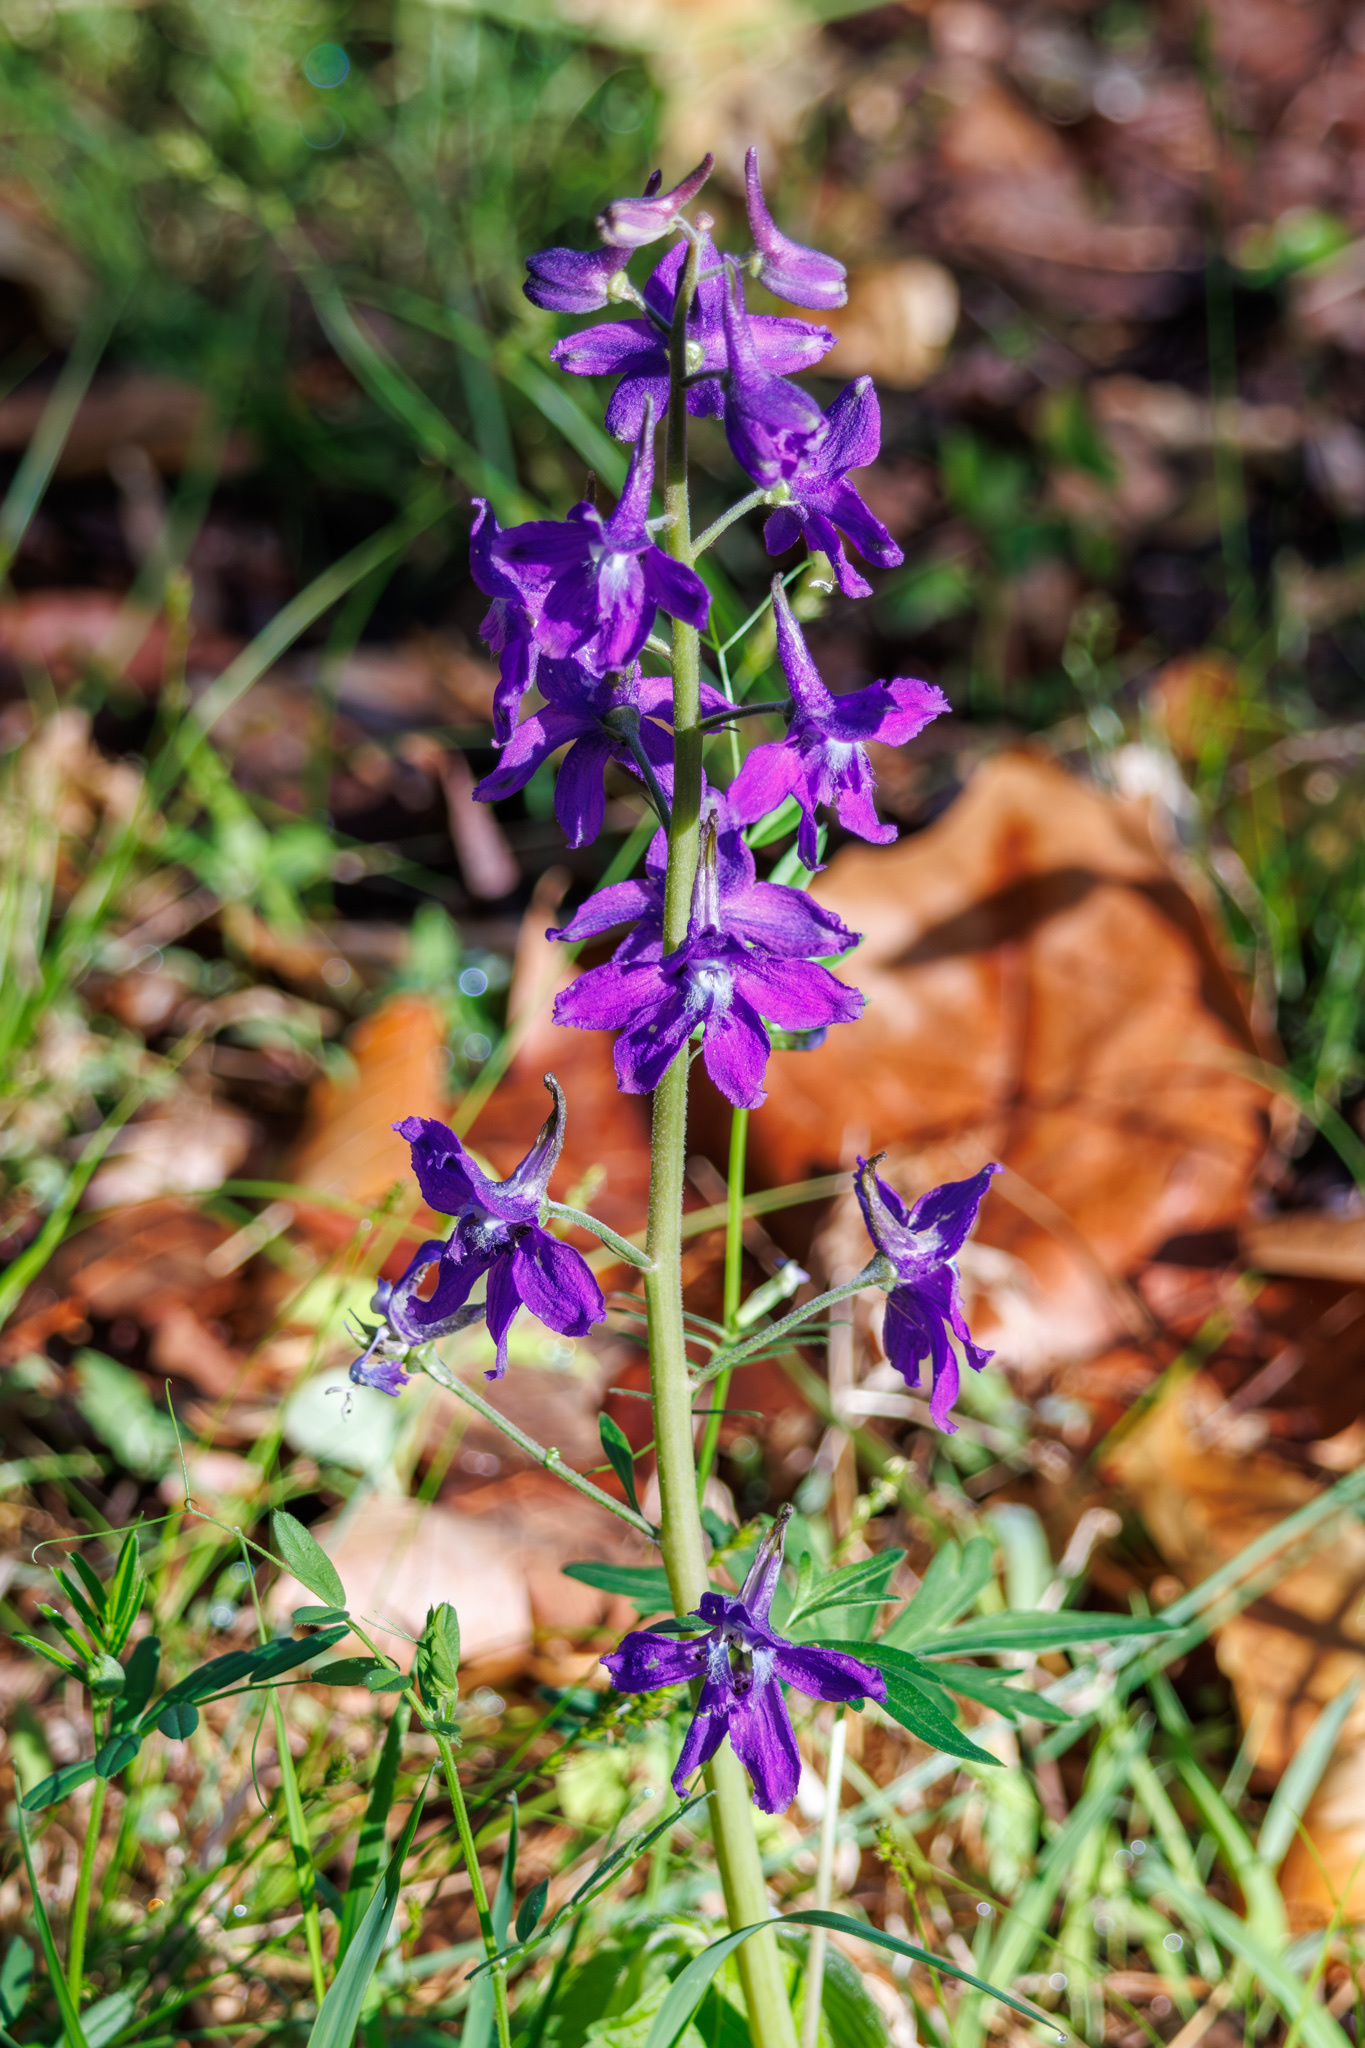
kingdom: Plantae
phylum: Tracheophyta
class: Magnoliopsida
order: Ranunculales
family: Ranunculaceae
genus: Delphinium
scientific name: Delphinium tricorne
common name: Dwarf larkspur
